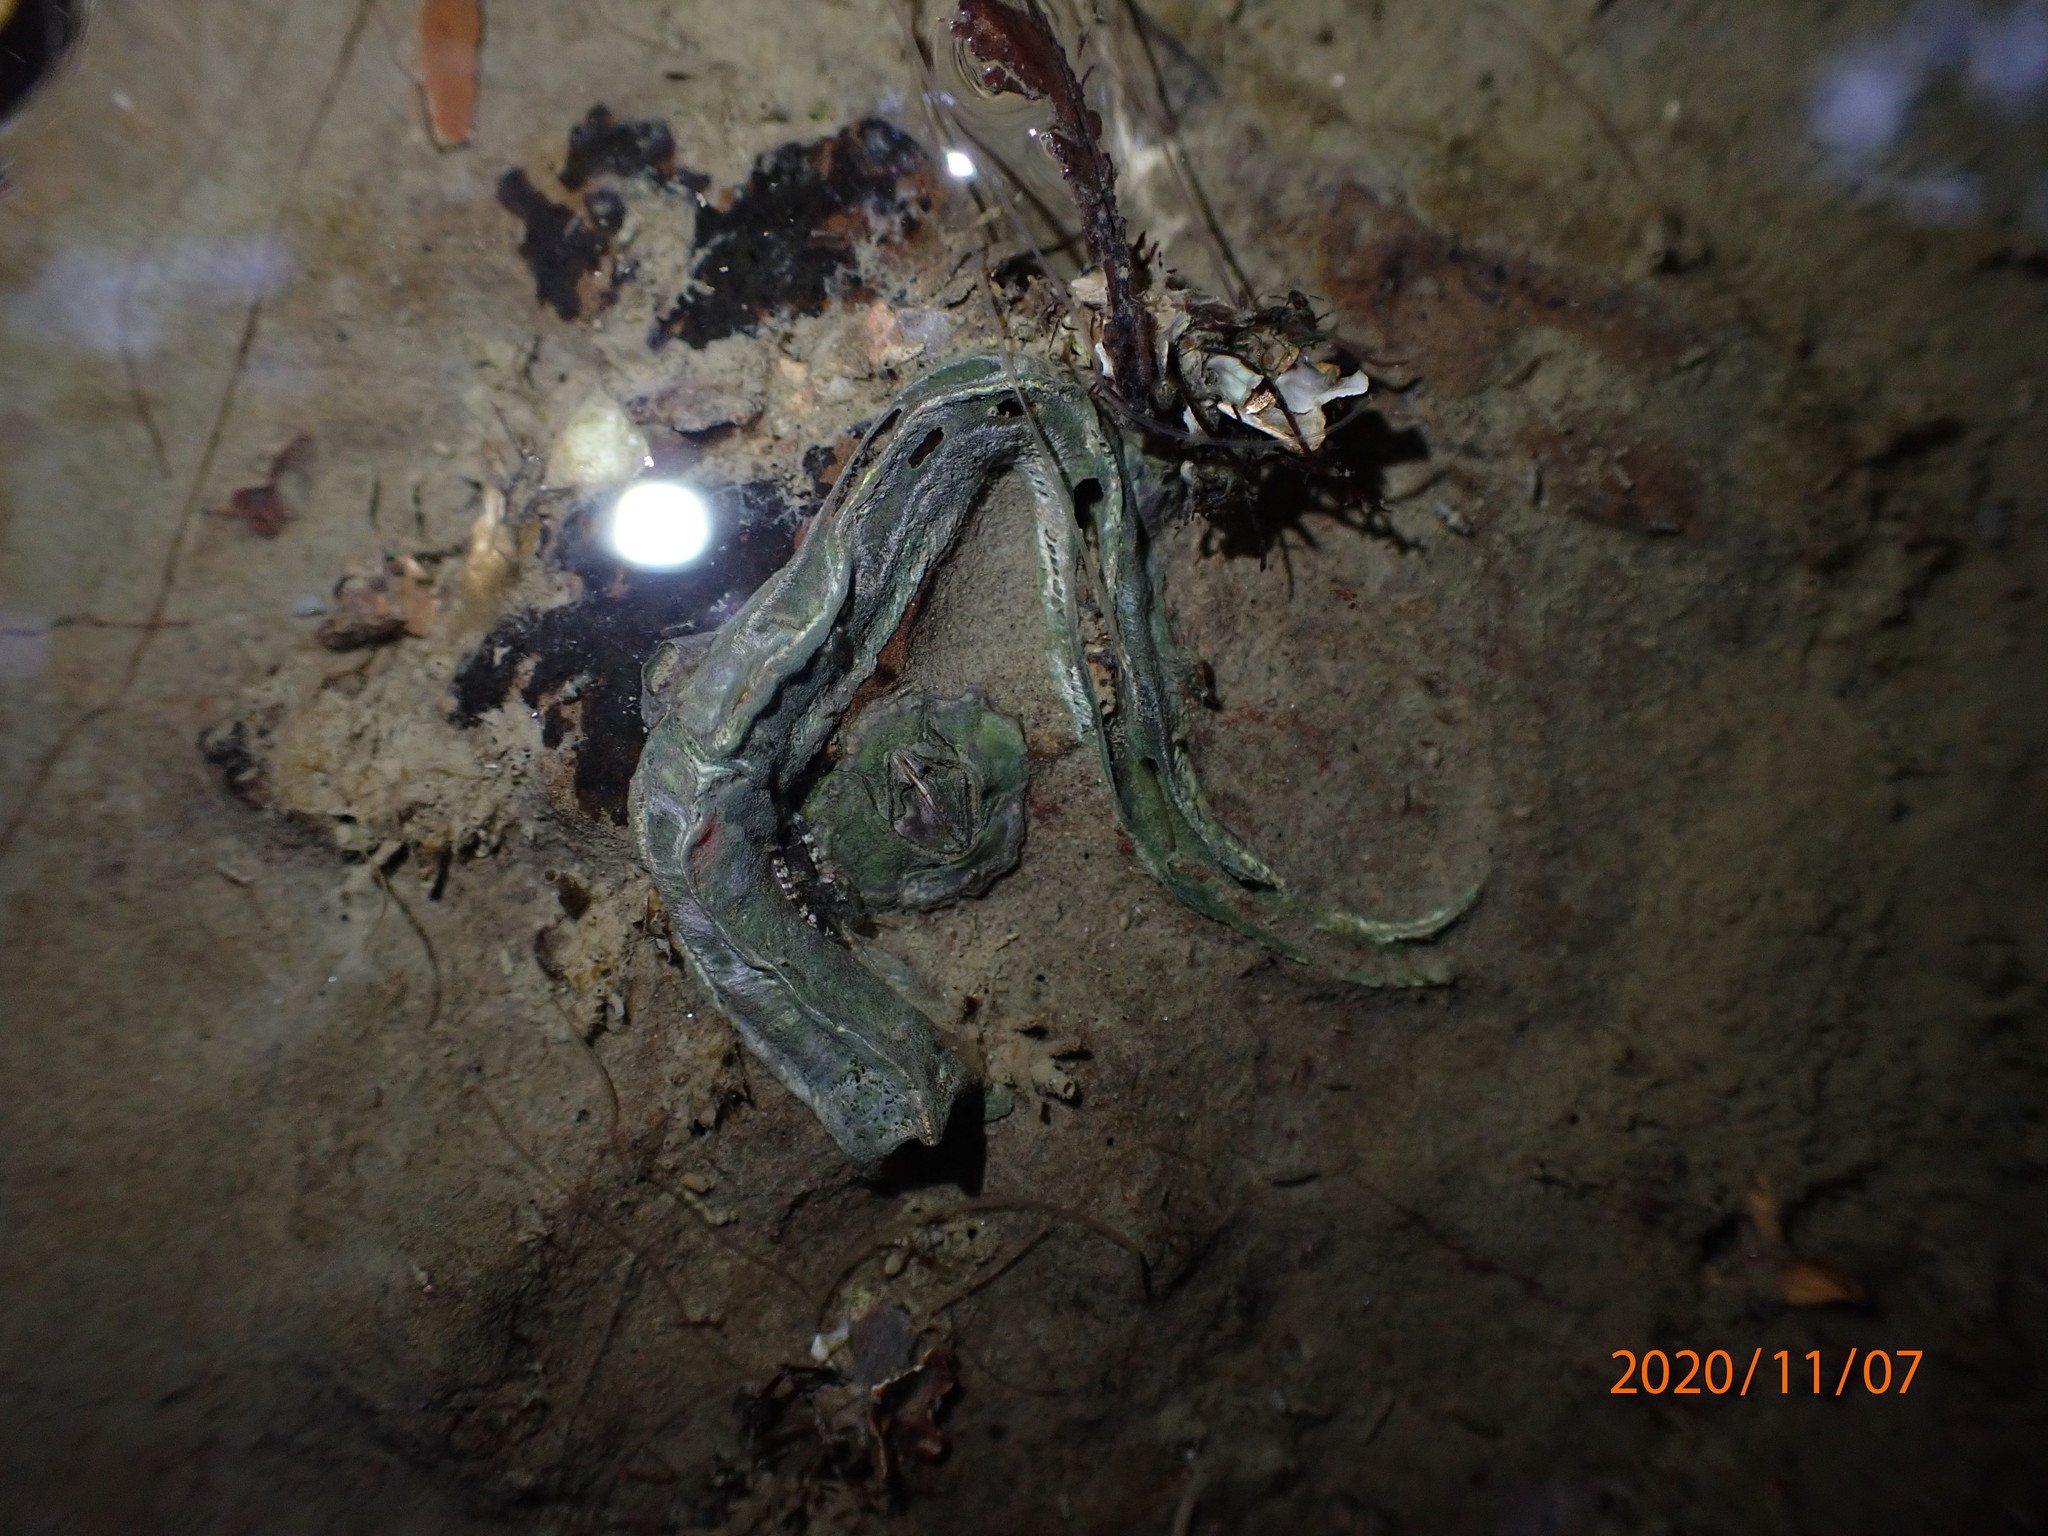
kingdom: Animalia
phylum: Annelida
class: Polychaeta
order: Sabellida
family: Serpulidae
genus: Spirobranchus
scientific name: Spirobranchus cariniferus
